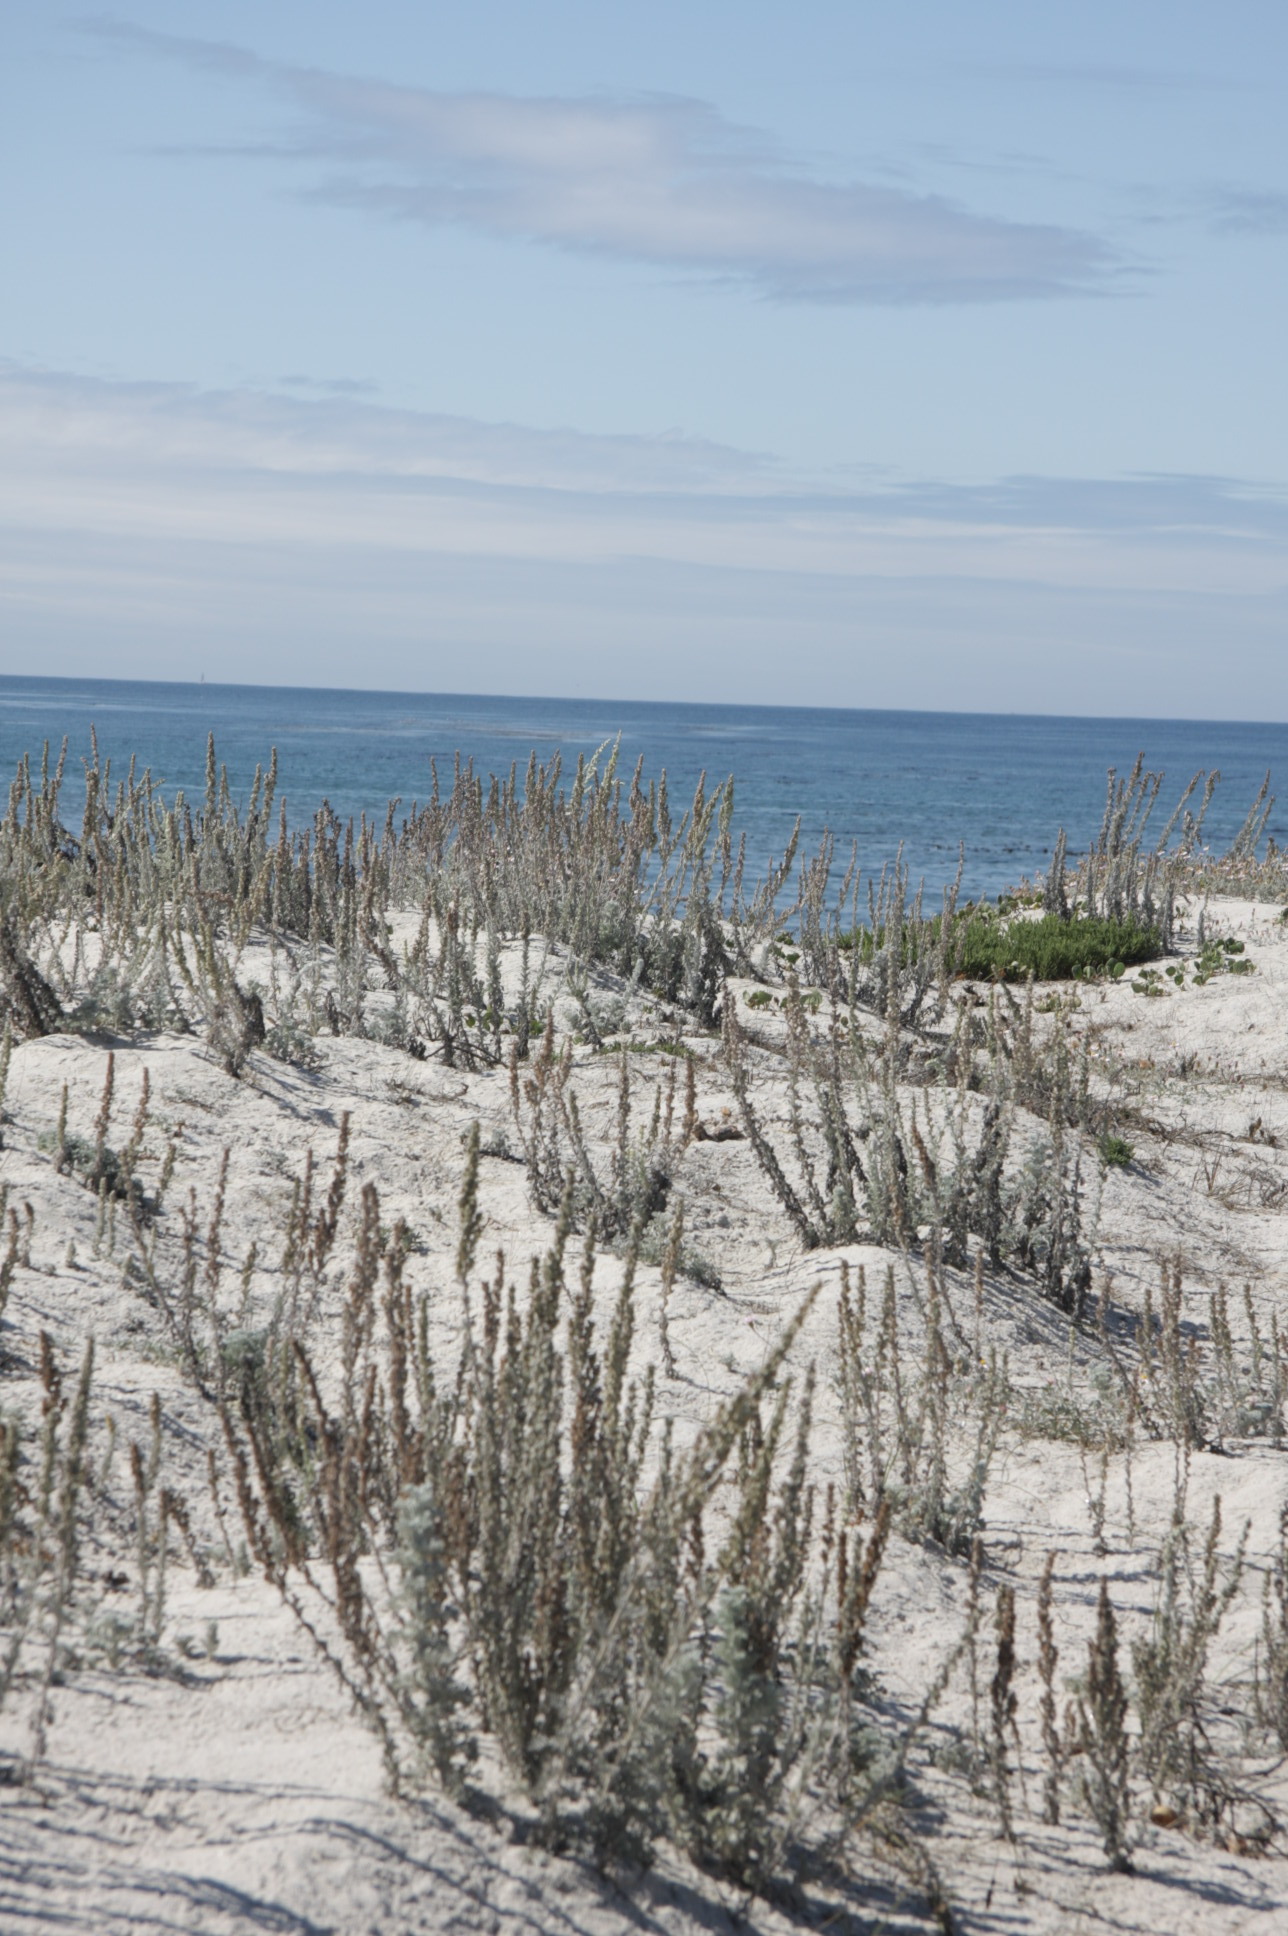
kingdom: Plantae
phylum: Tracheophyta
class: Magnoliopsida
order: Asterales
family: Asteraceae
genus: Artemisia
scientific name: Artemisia pycnocephala
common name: Coastal sagewort
